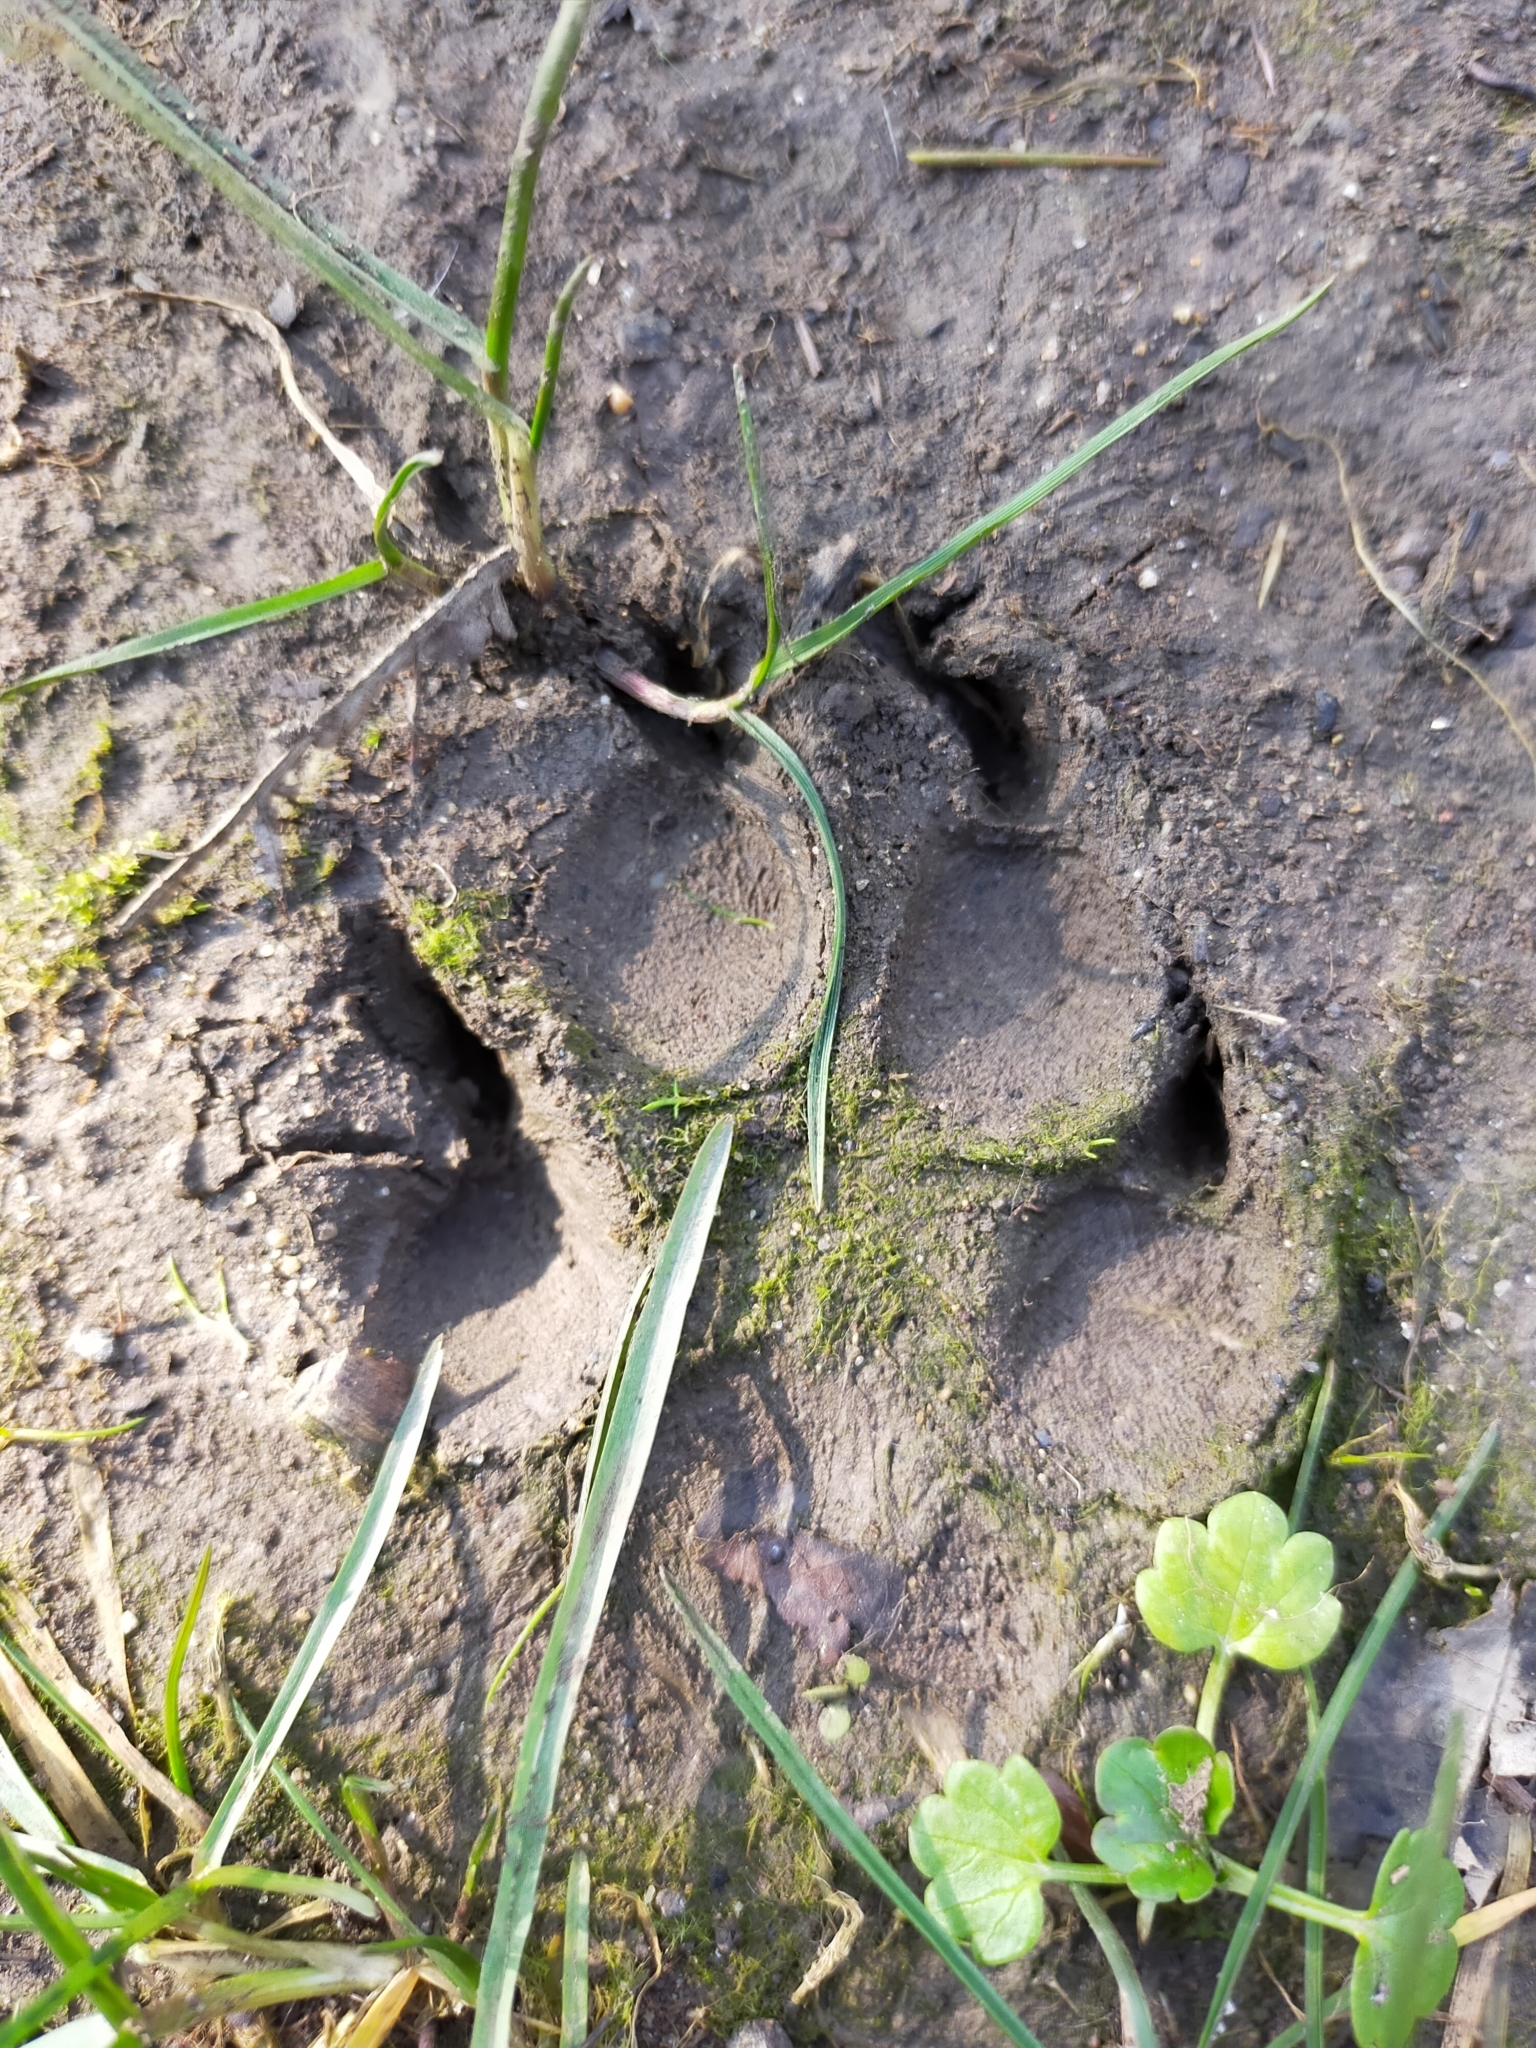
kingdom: Animalia
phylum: Chordata
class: Mammalia
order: Carnivora
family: Canidae
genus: Canis
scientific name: Canis lupus
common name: Gray wolf
